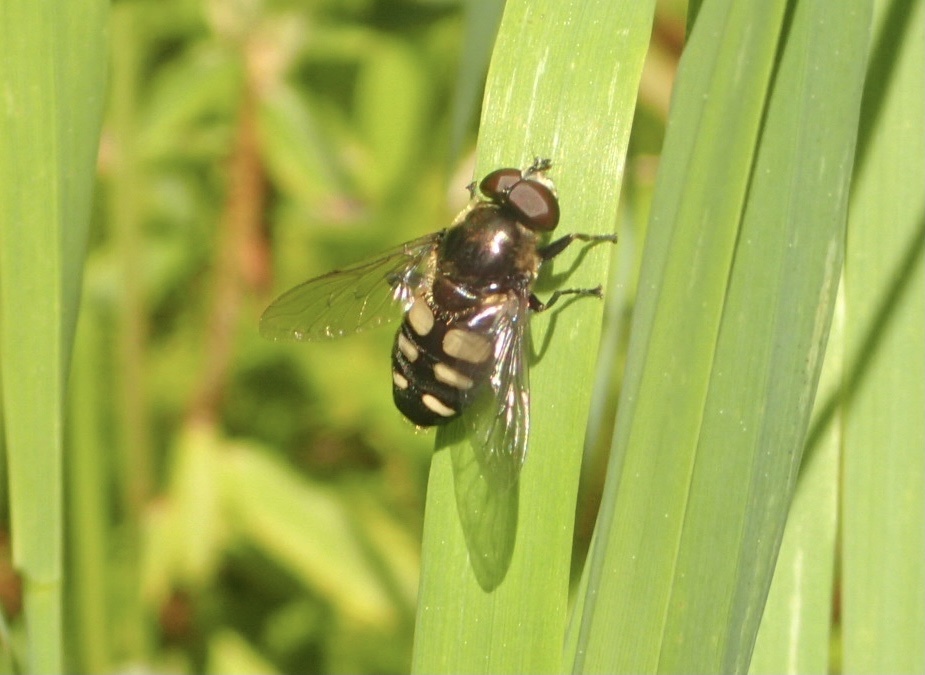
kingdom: Animalia
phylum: Arthropoda
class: Insecta
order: Diptera
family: Syrphidae
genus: Sericomyia
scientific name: Sericomyia transversa
